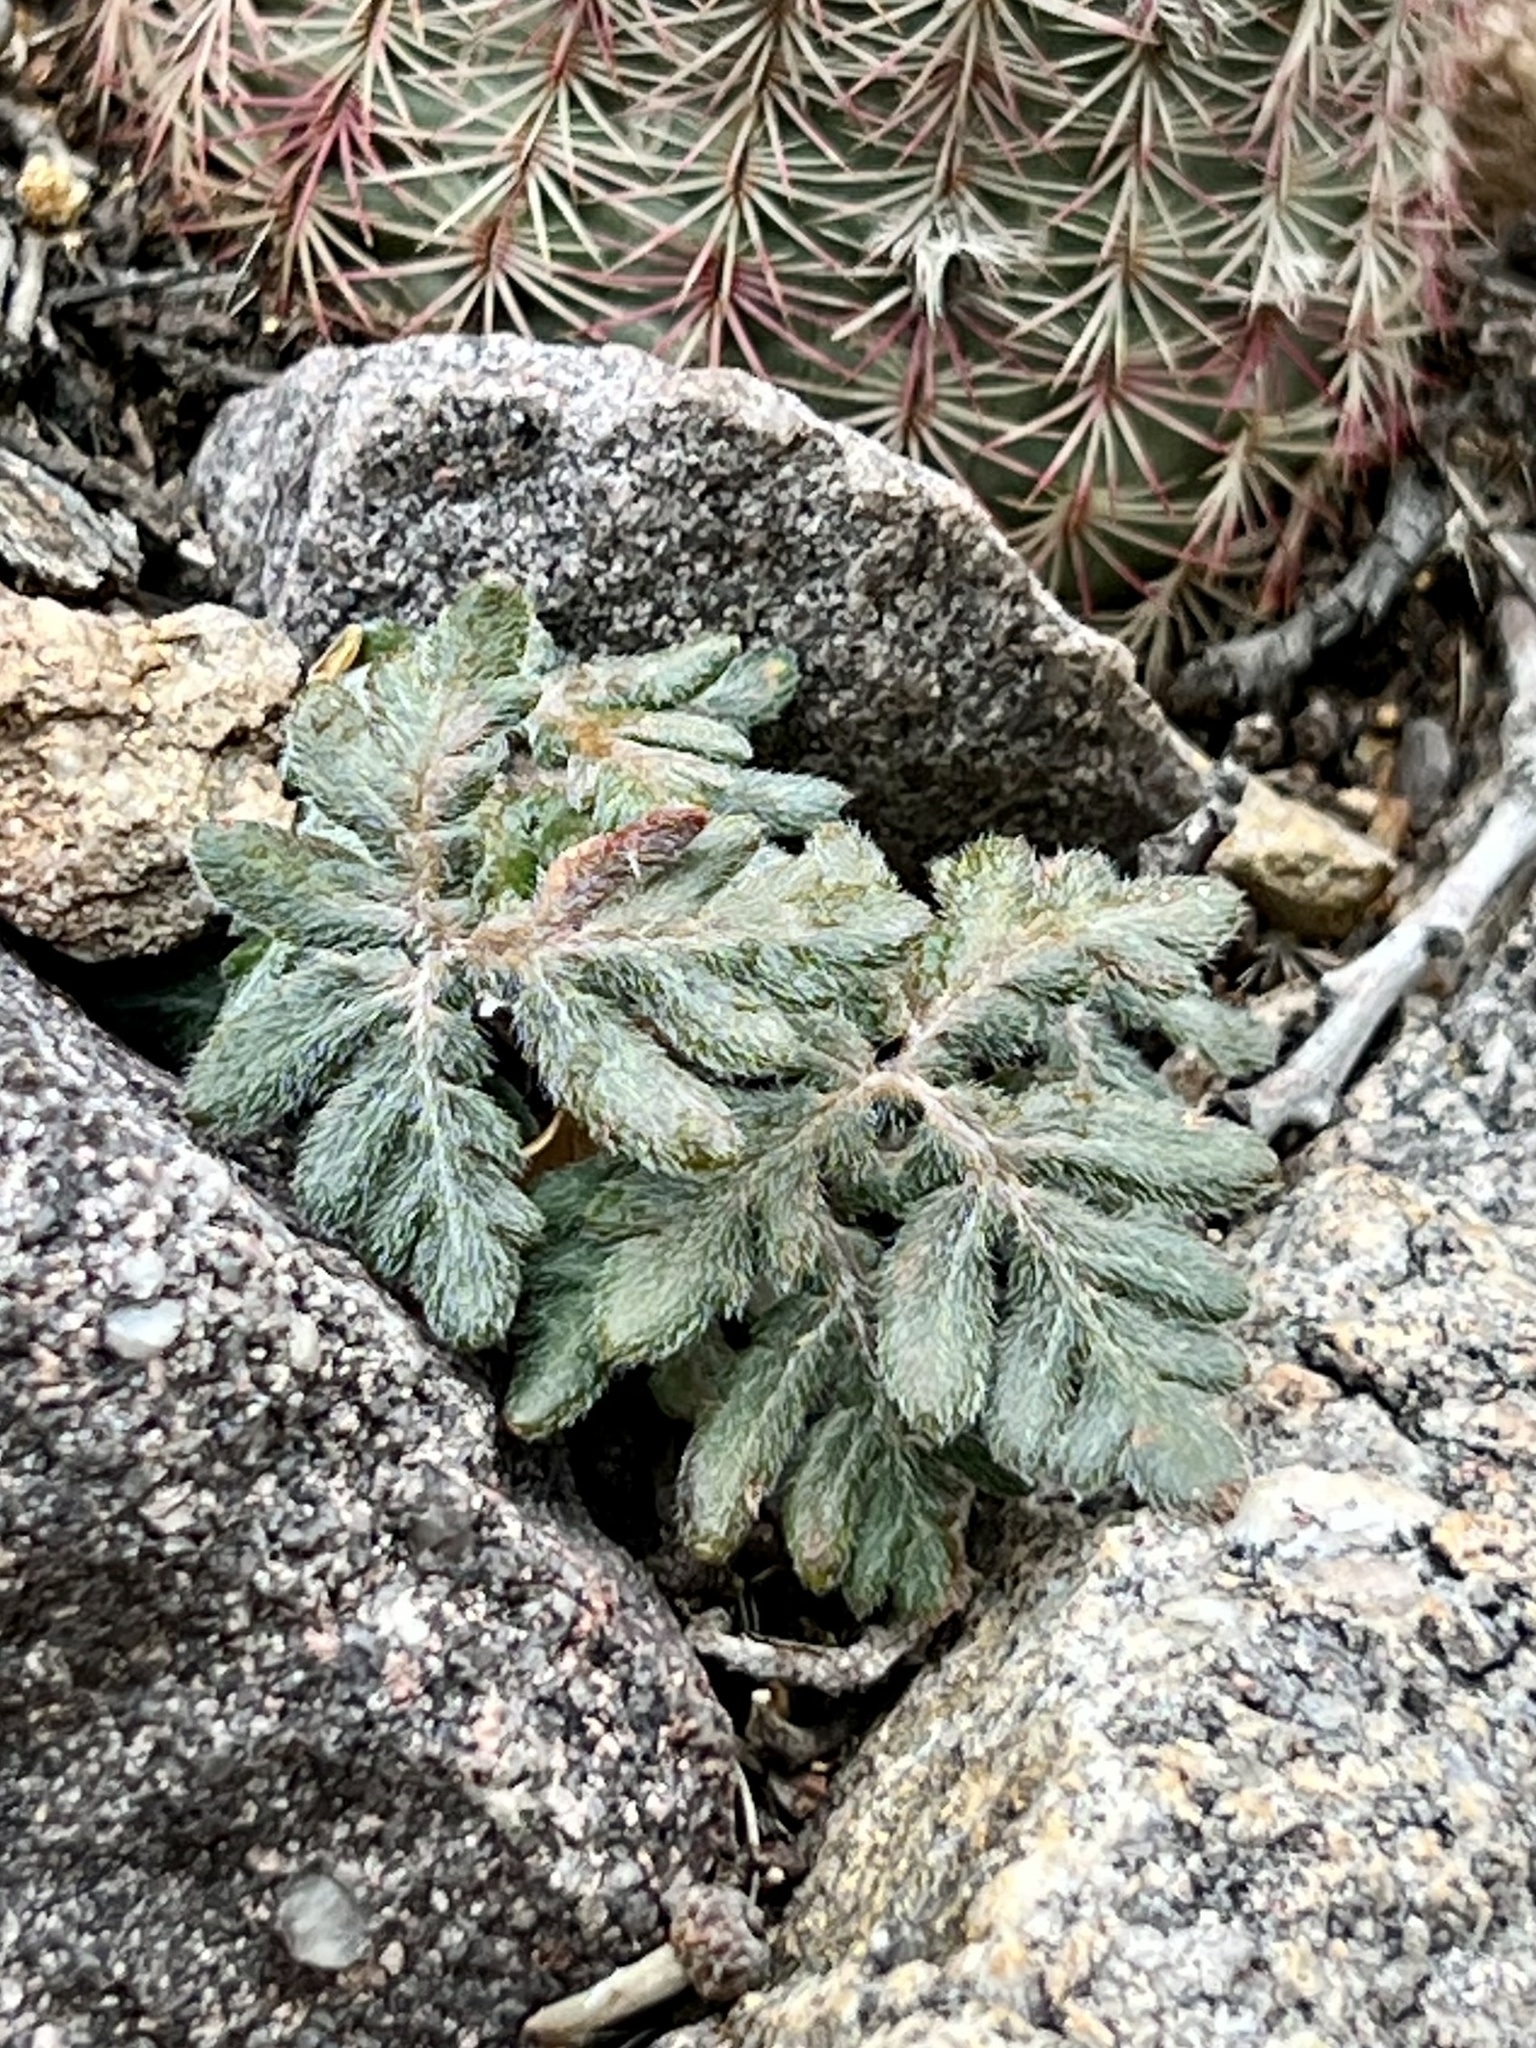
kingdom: Plantae
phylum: Tracheophyta
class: Polypodiopsida
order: Polypodiales
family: Pteridaceae
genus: Bommeria
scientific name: Bommeria hispida
